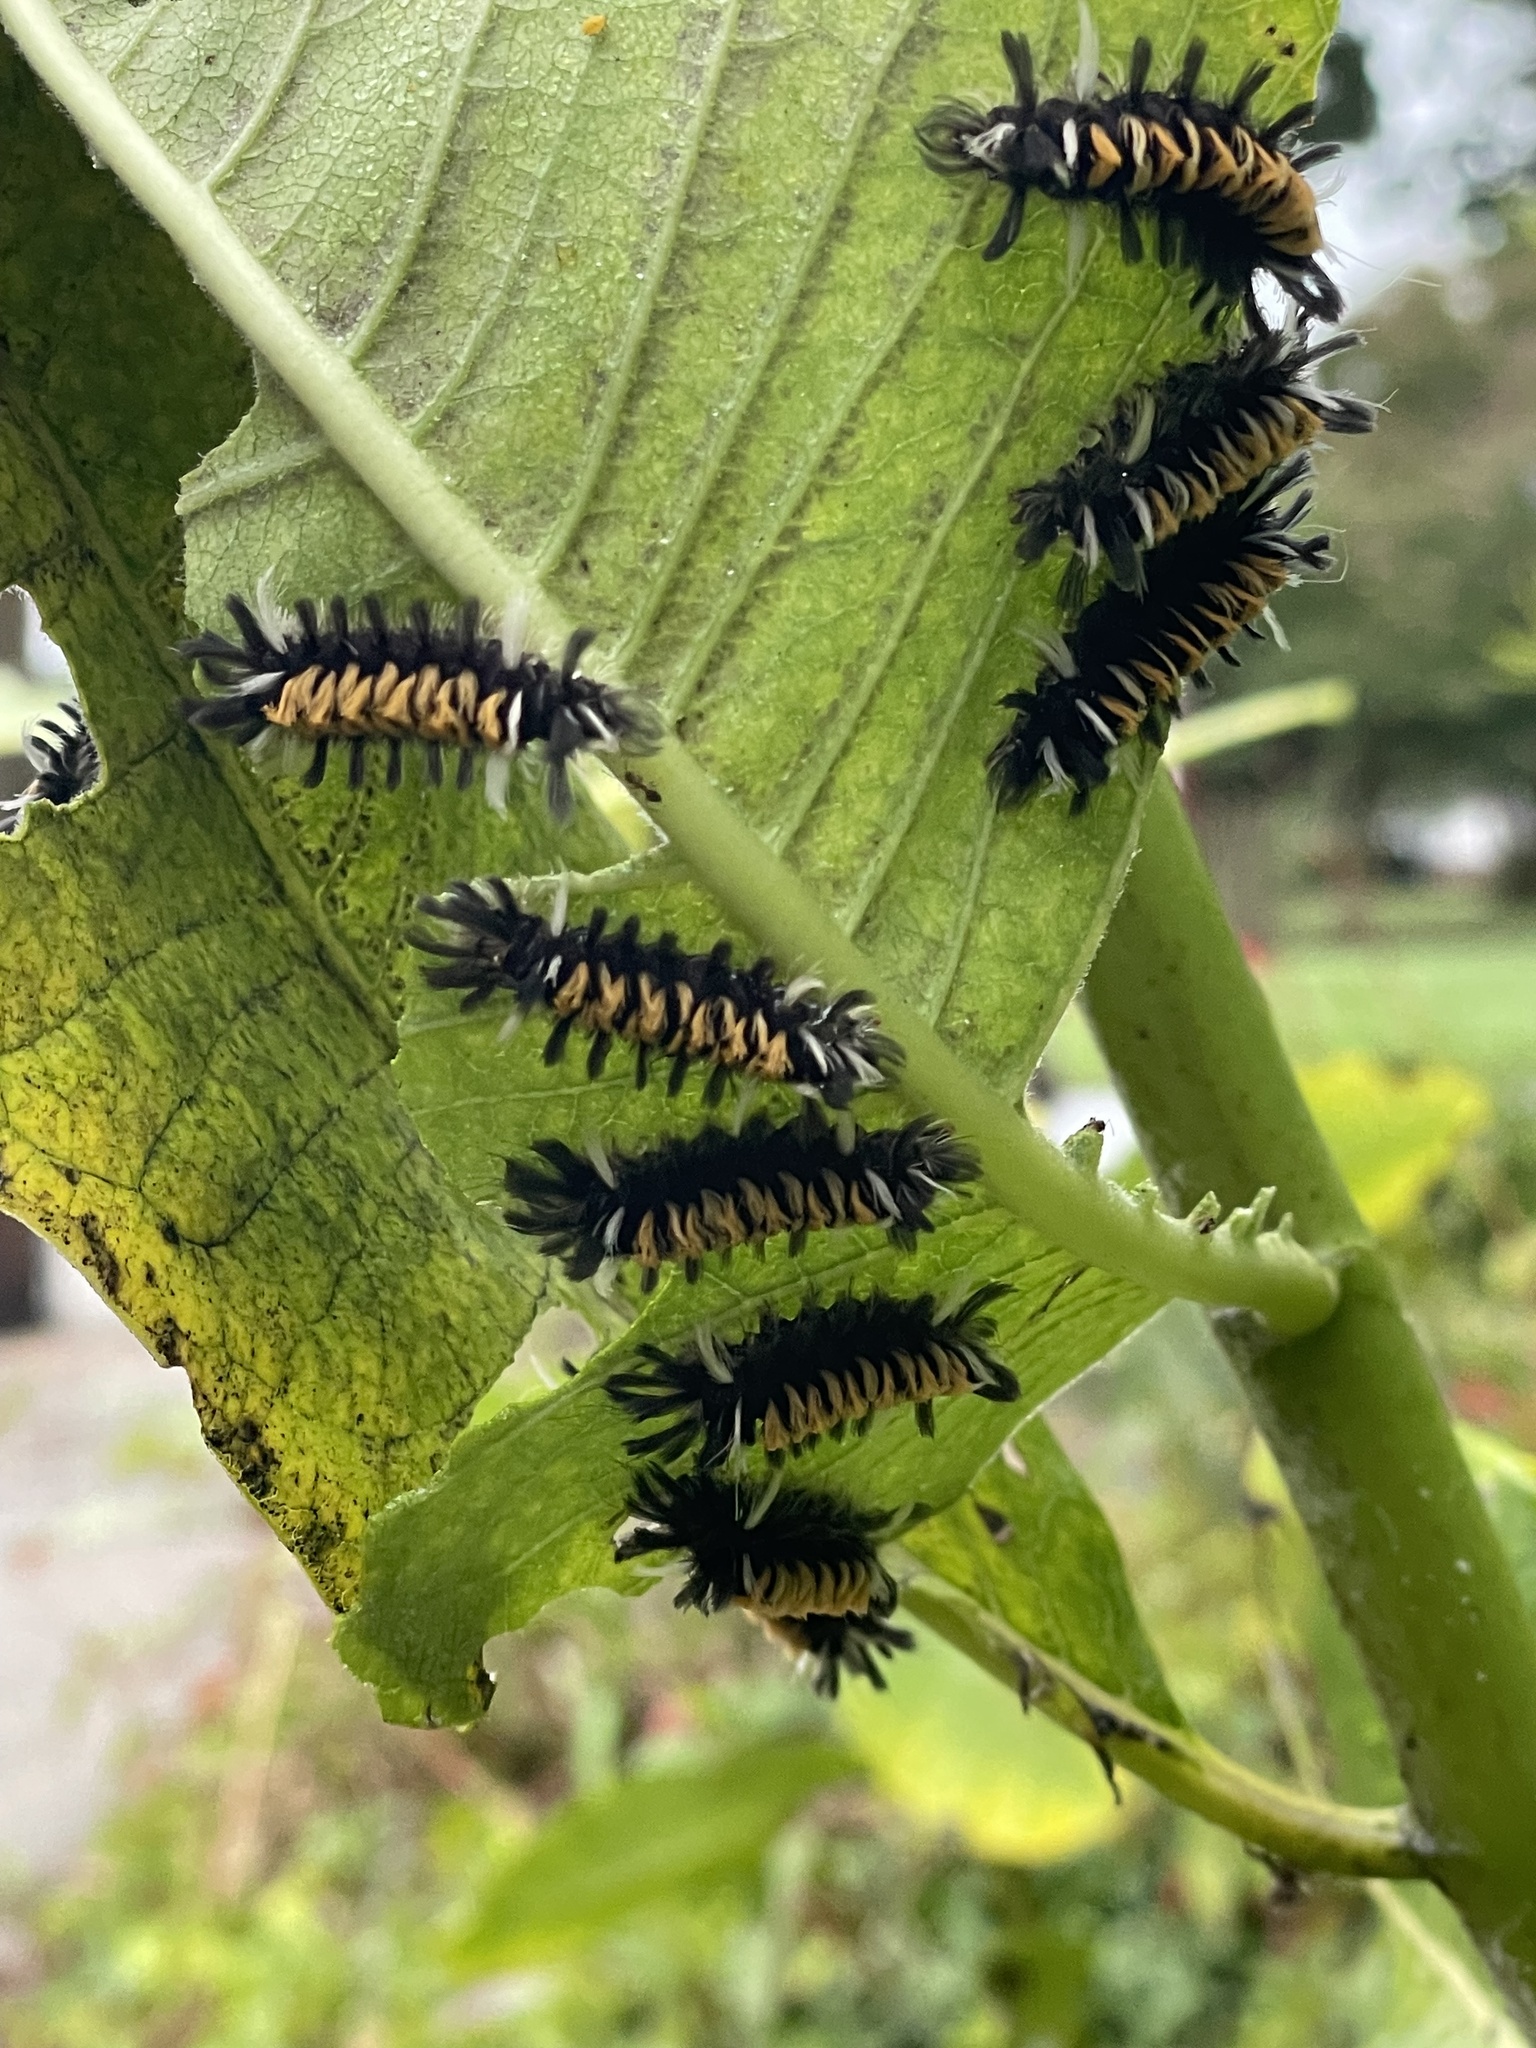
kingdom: Animalia
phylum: Arthropoda
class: Insecta
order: Lepidoptera
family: Erebidae
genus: Euchaetes
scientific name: Euchaetes egle
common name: Milkweed tussock moth
